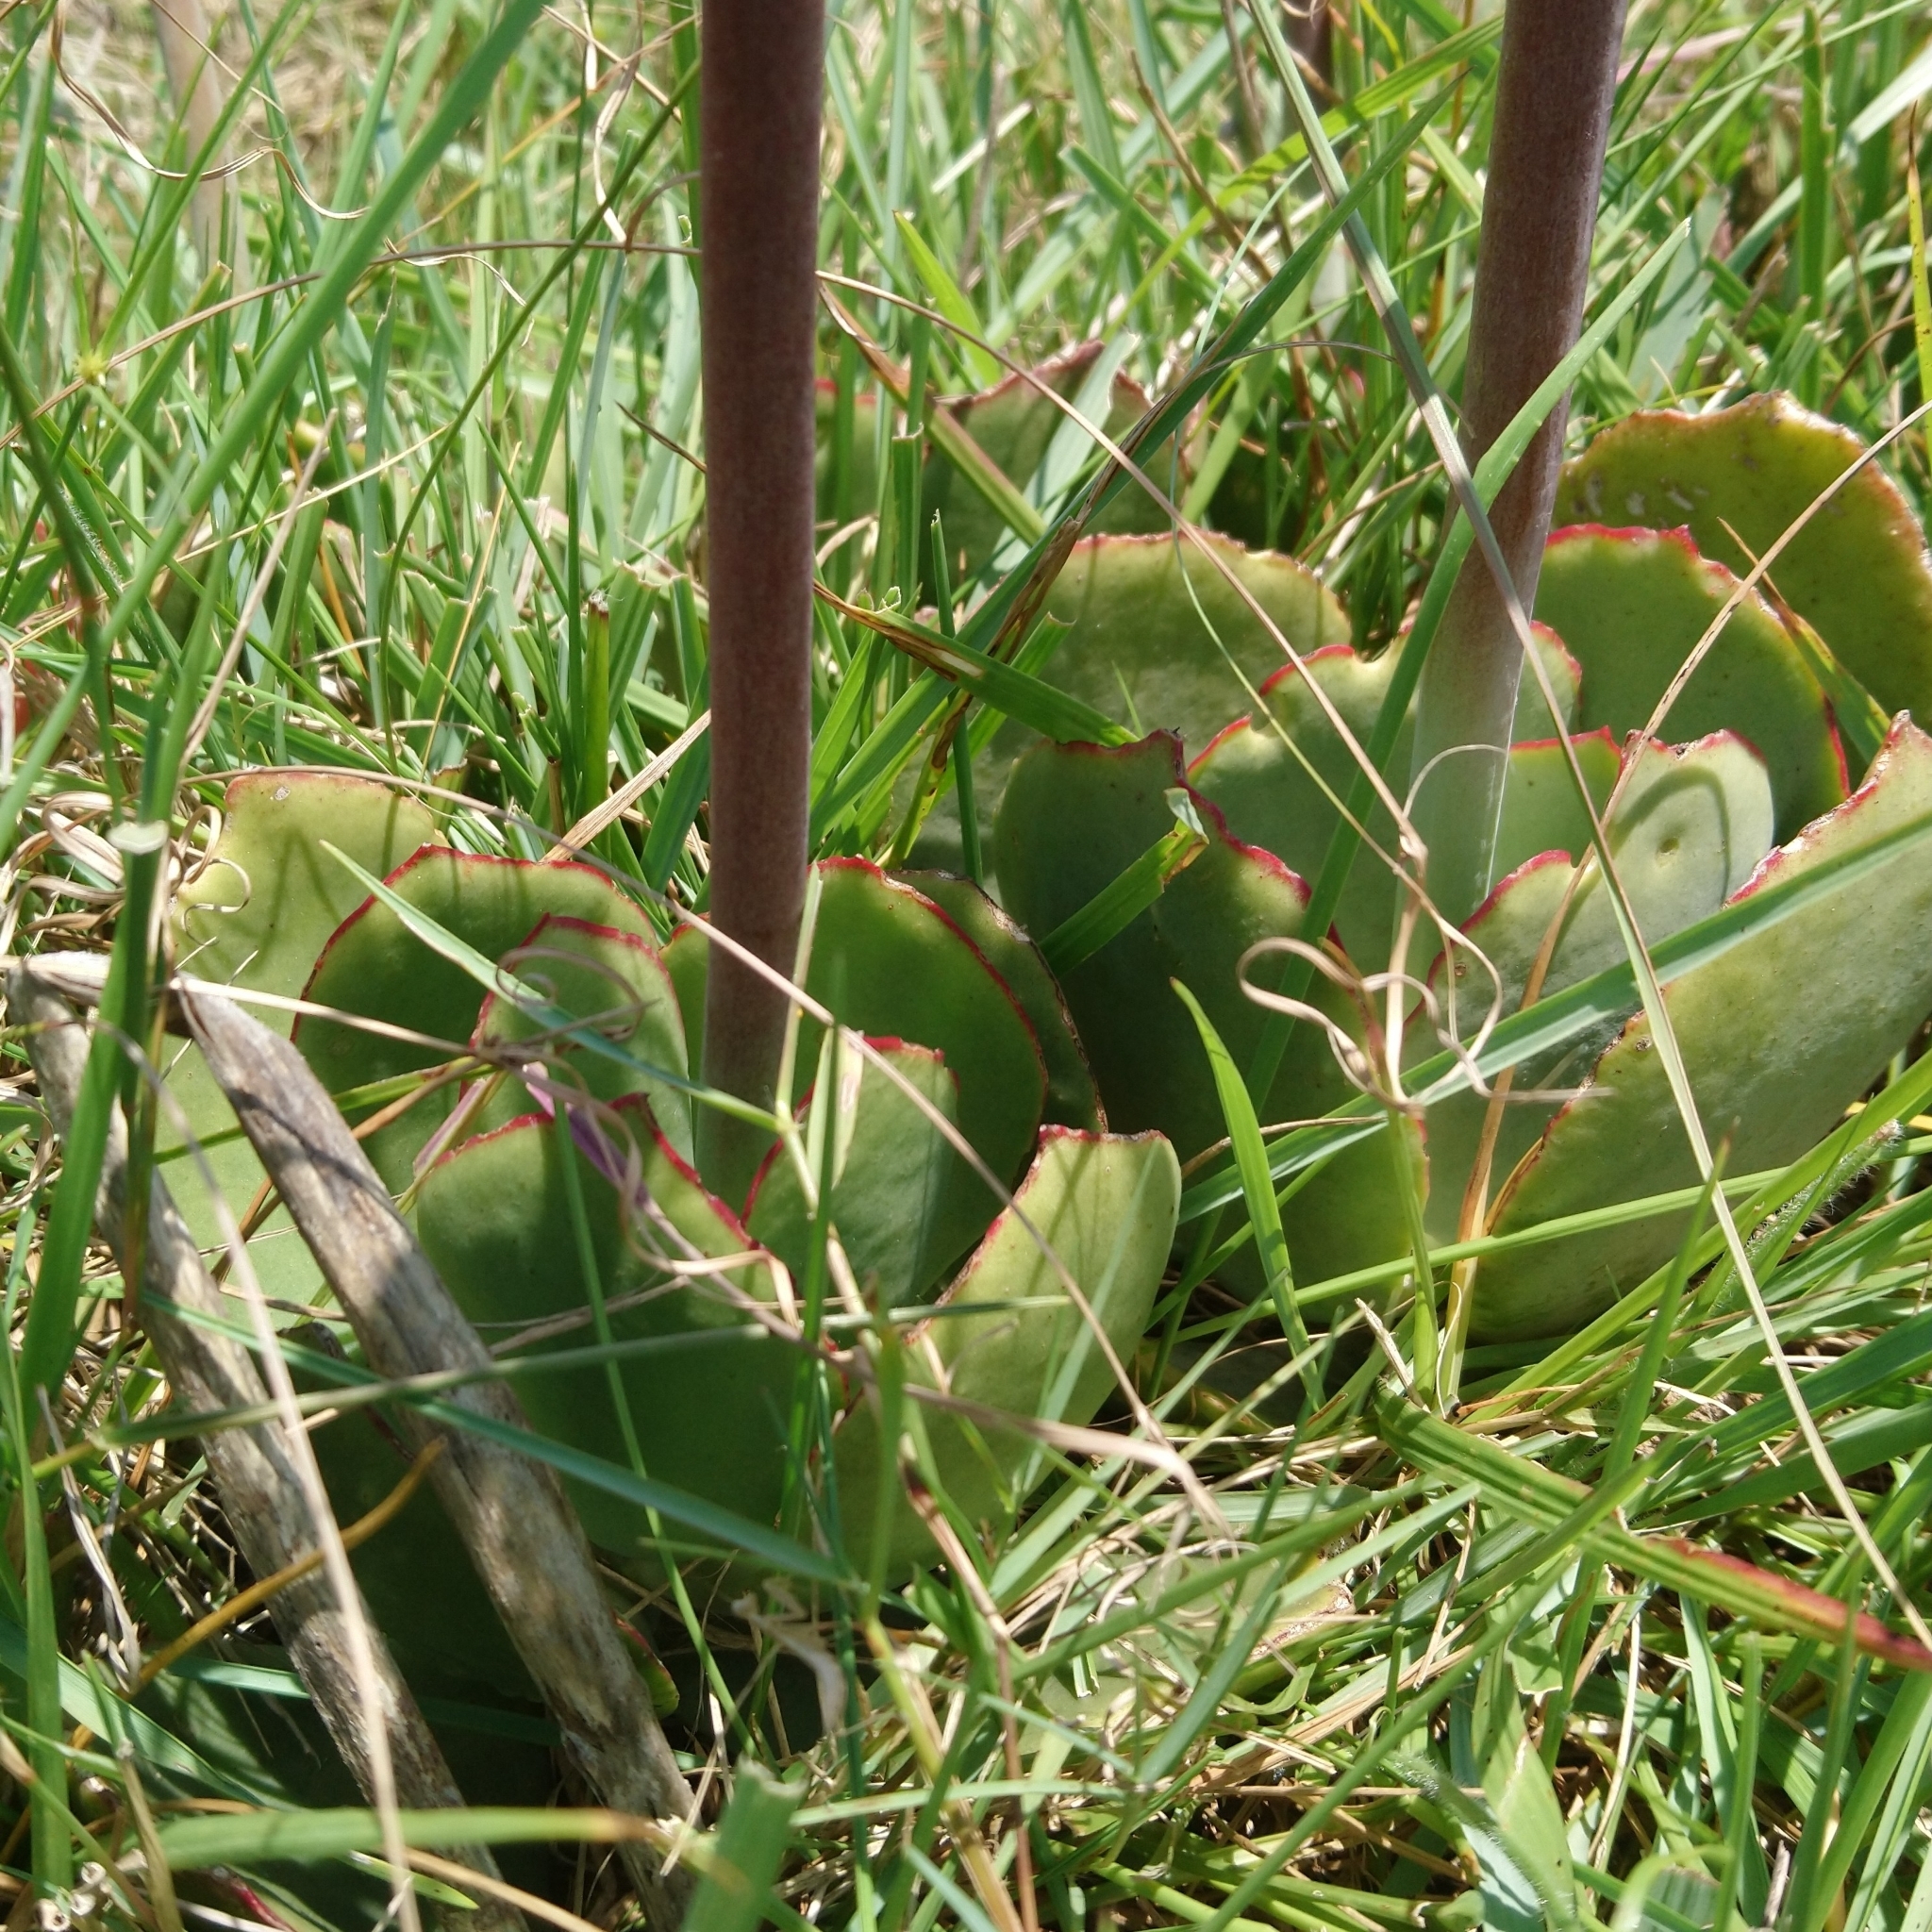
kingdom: Plantae
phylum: Tracheophyta
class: Magnoliopsida
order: Saxifragales
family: Crassulaceae
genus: Cotyledon
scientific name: Cotyledon orbiculata
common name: Pig's ear
